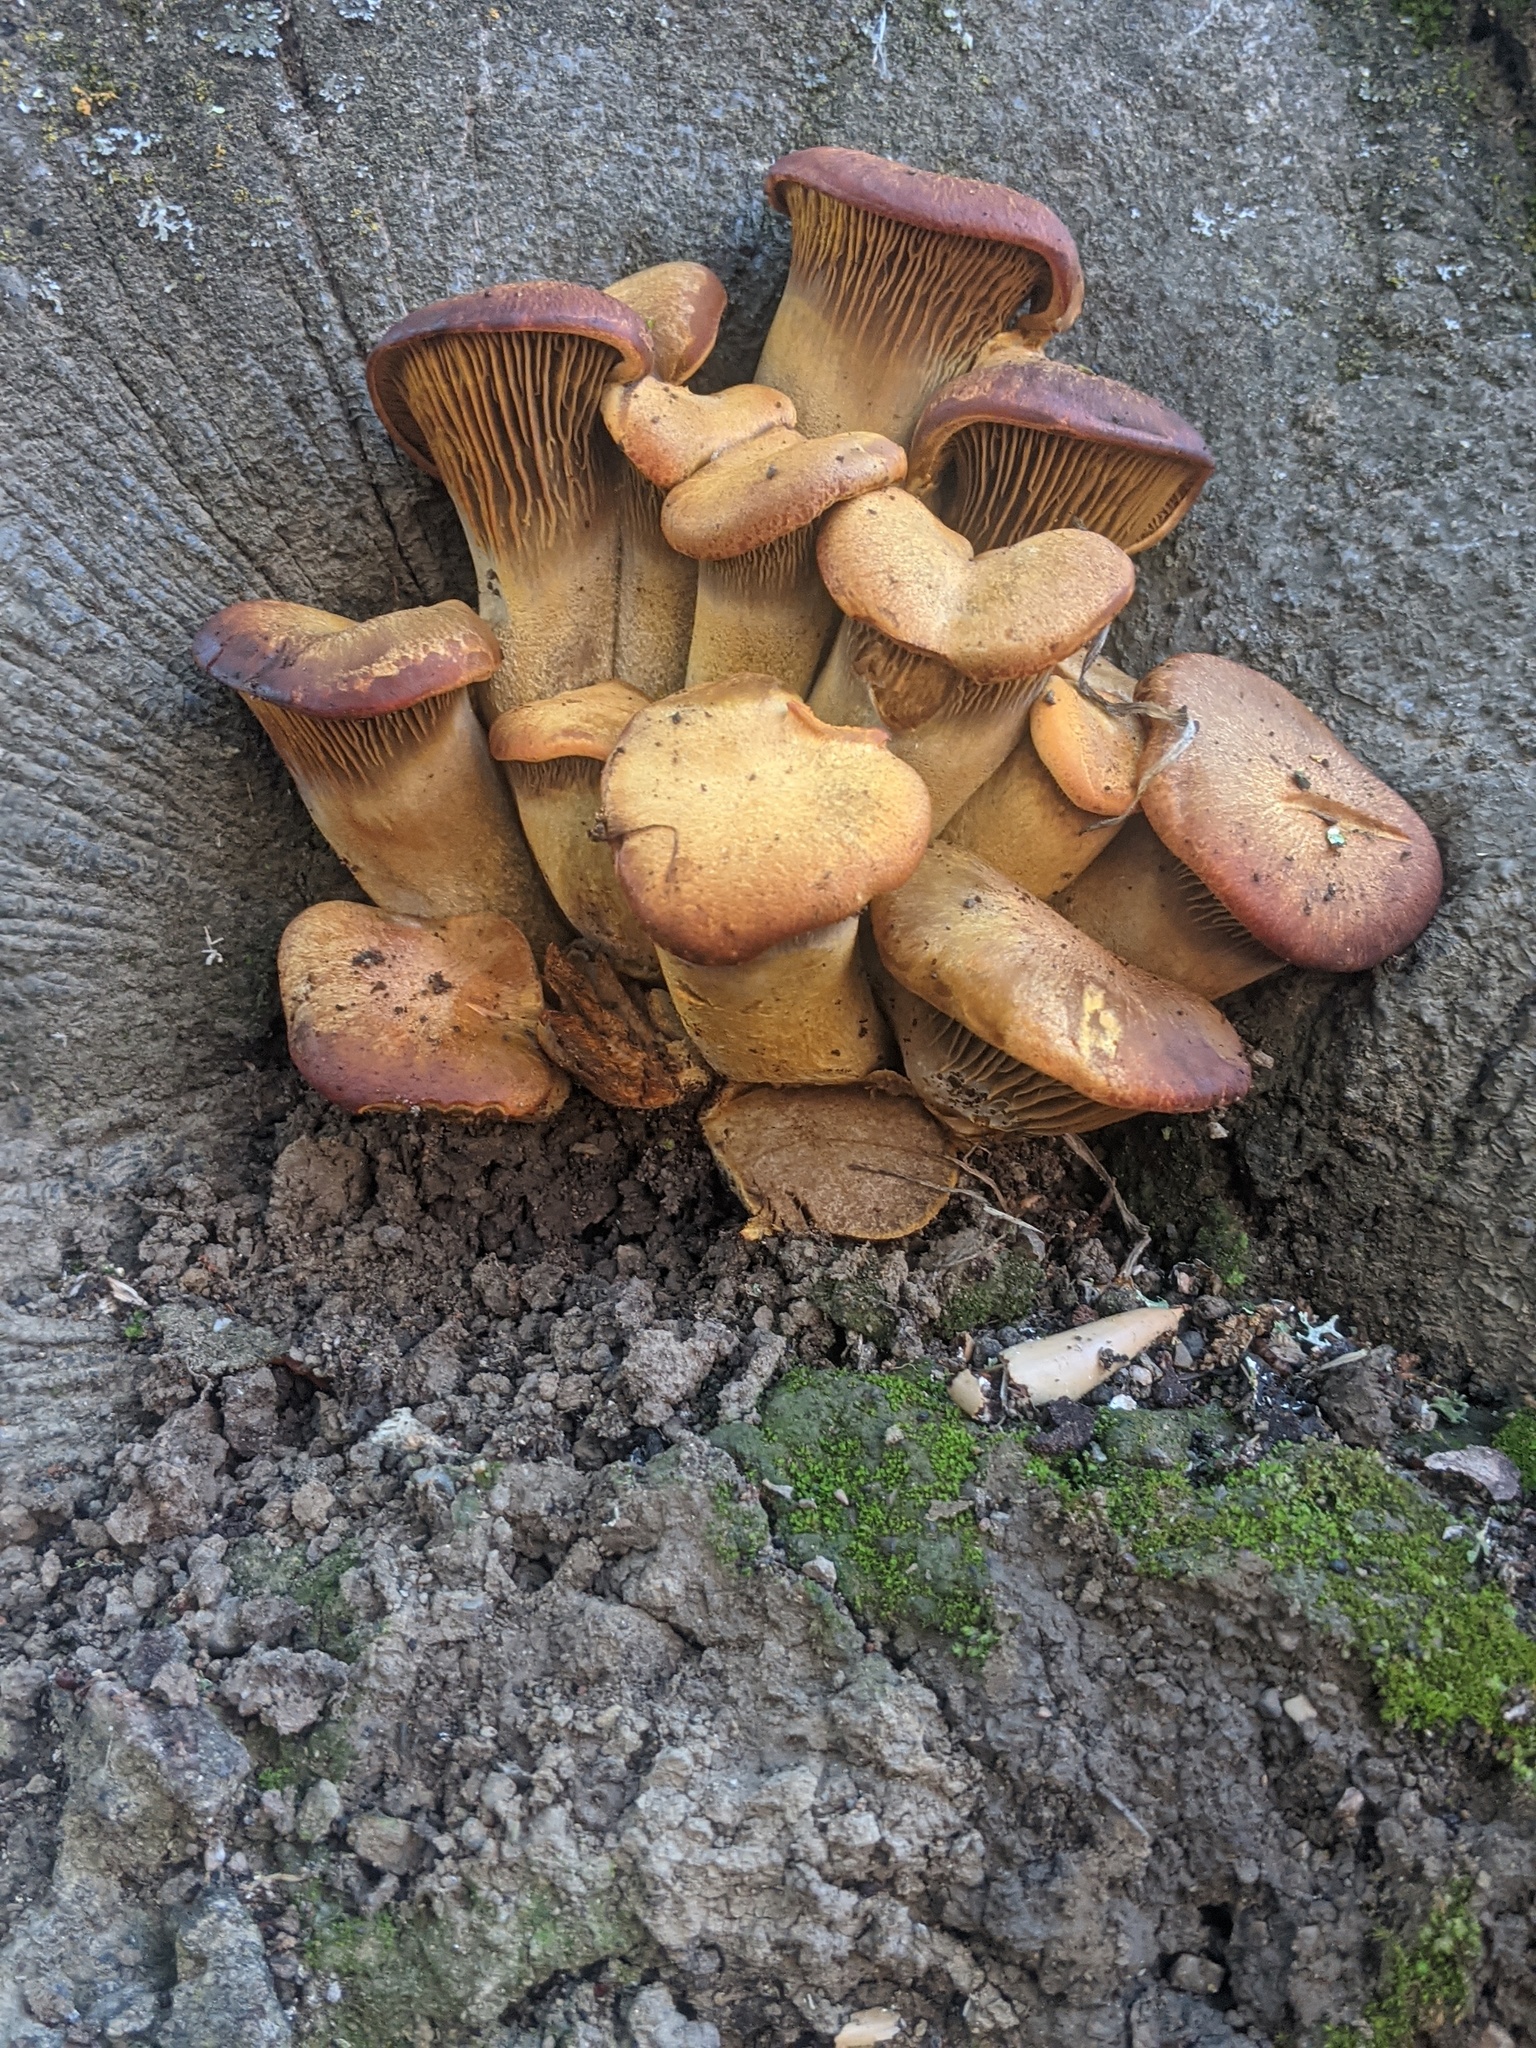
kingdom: Fungi
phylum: Basidiomycota
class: Agaricomycetes
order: Agaricales
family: Omphalotaceae
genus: Omphalotus
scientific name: Omphalotus olivascens
